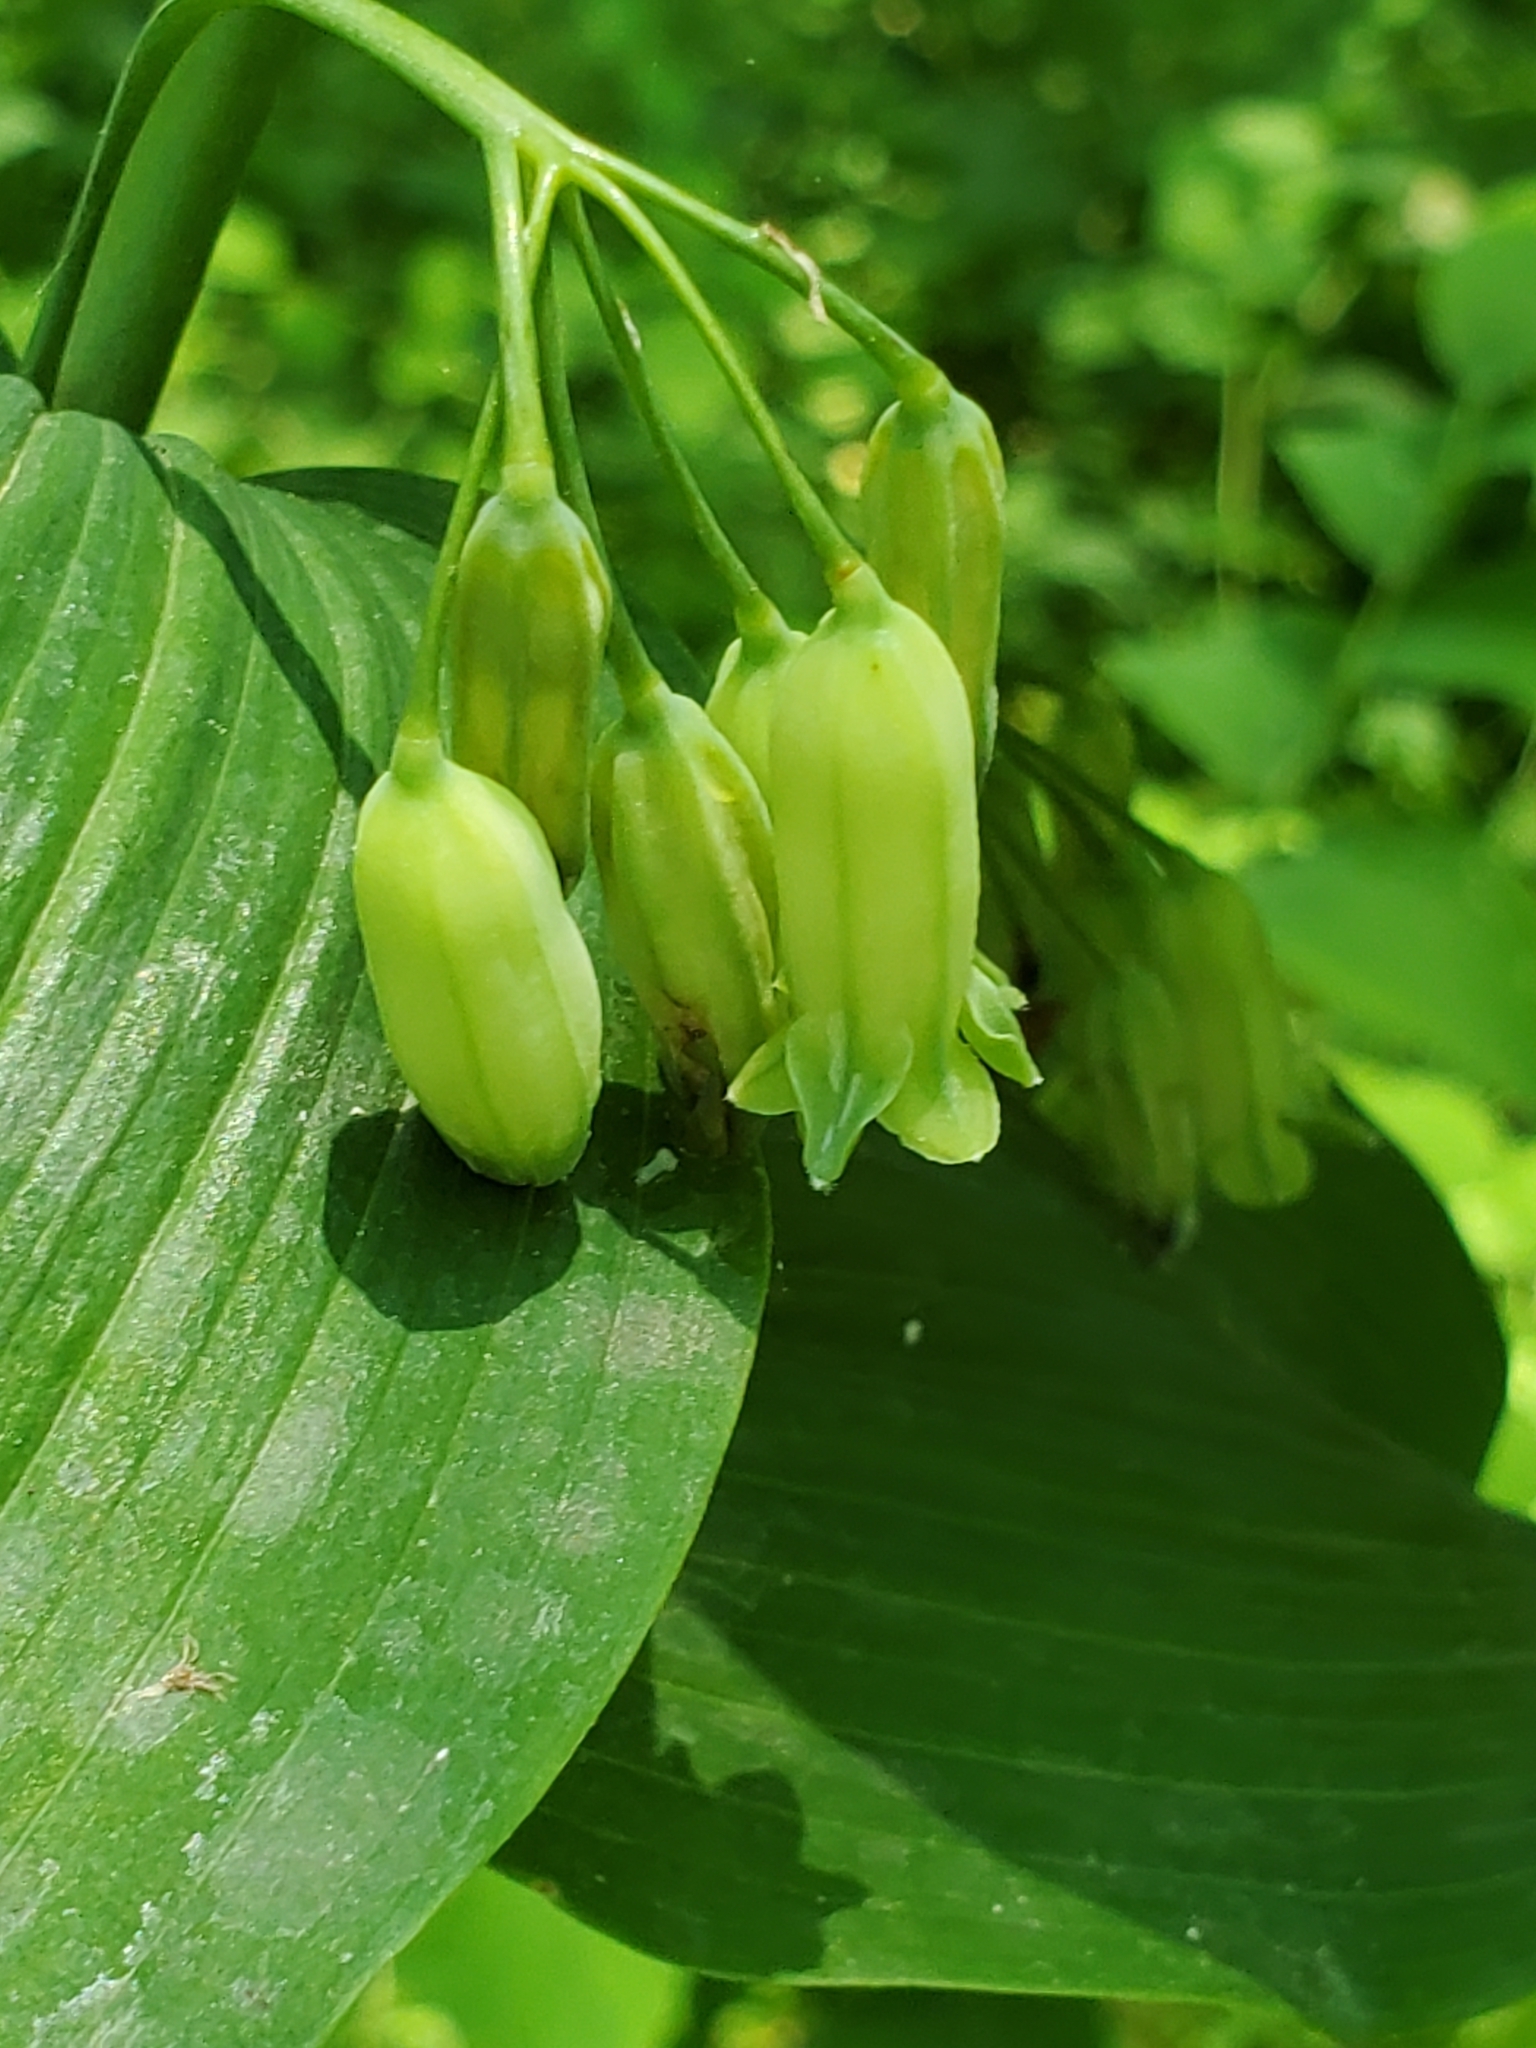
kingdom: Plantae
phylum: Tracheophyta
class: Liliopsida
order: Asparagales
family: Asparagaceae
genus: Polygonatum
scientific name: Polygonatum biflorum
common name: American solomon's-seal
